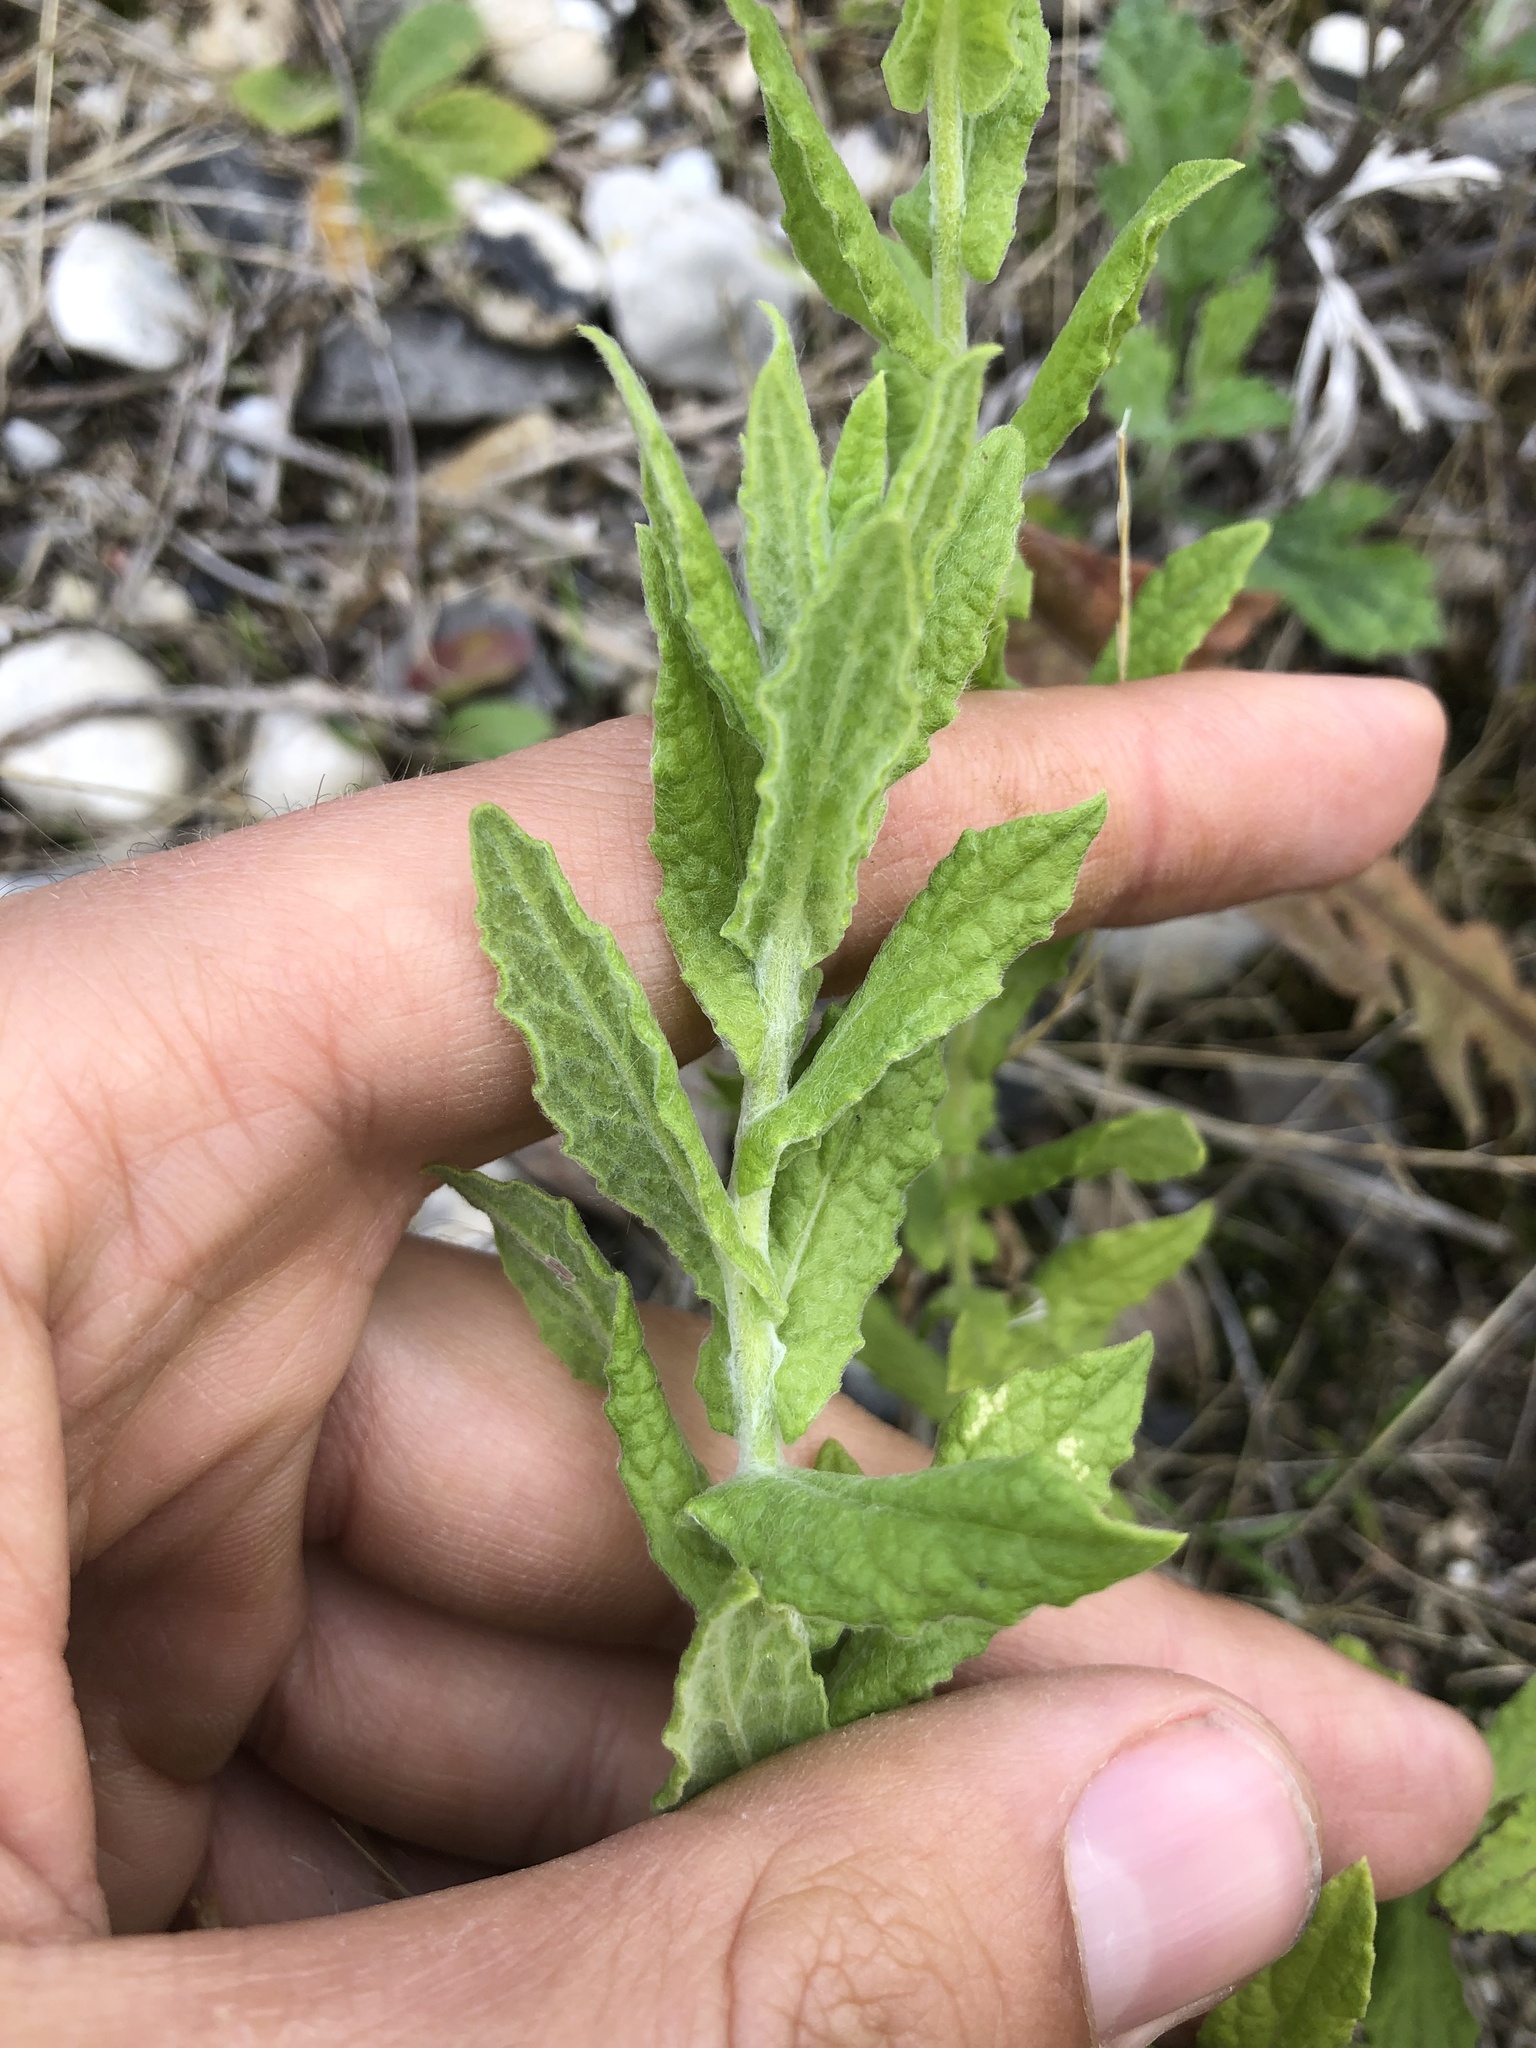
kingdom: Plantae
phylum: Tracheophyta
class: Magnoliopsida
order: Asterales
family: Asteraceae
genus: Pulicaria
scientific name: Pulicaria dysenterica
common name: Common fleabane
